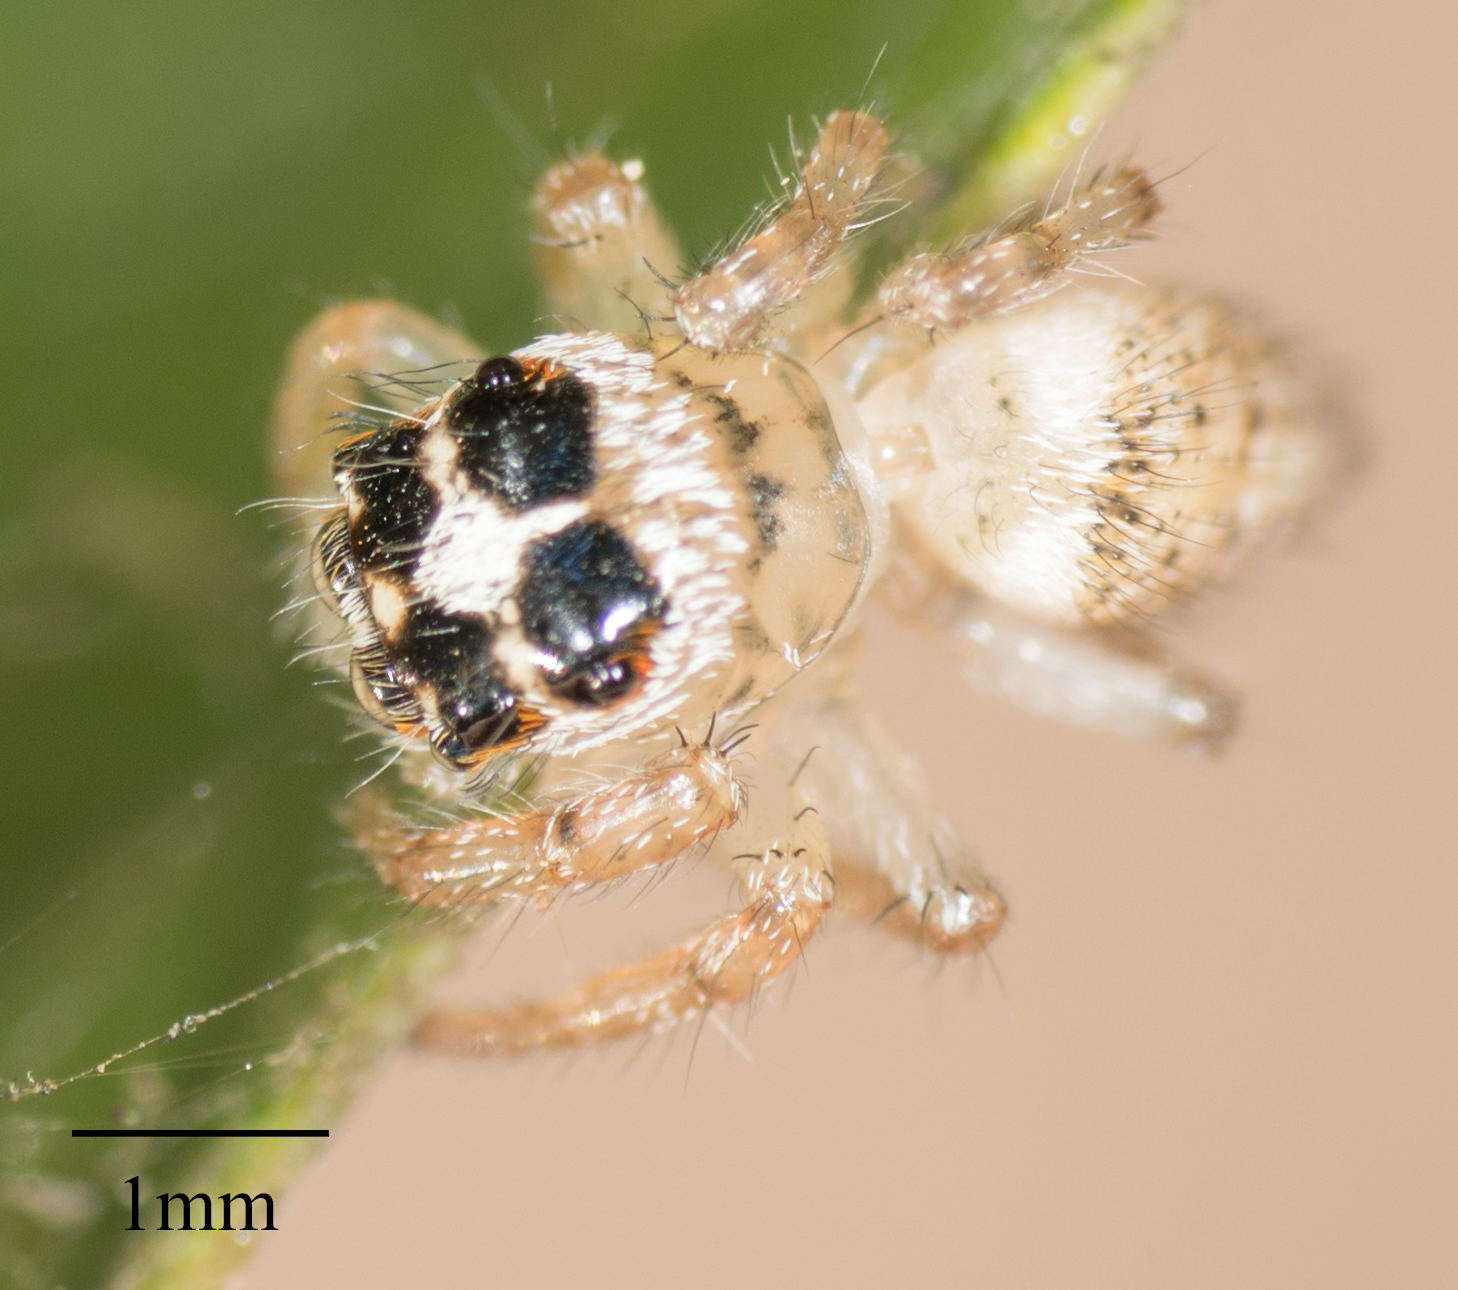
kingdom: Animalia
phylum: Arthropoda
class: Arachnida
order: Araneae
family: Salticidae
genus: Colonus
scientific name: Colonus hesperus
